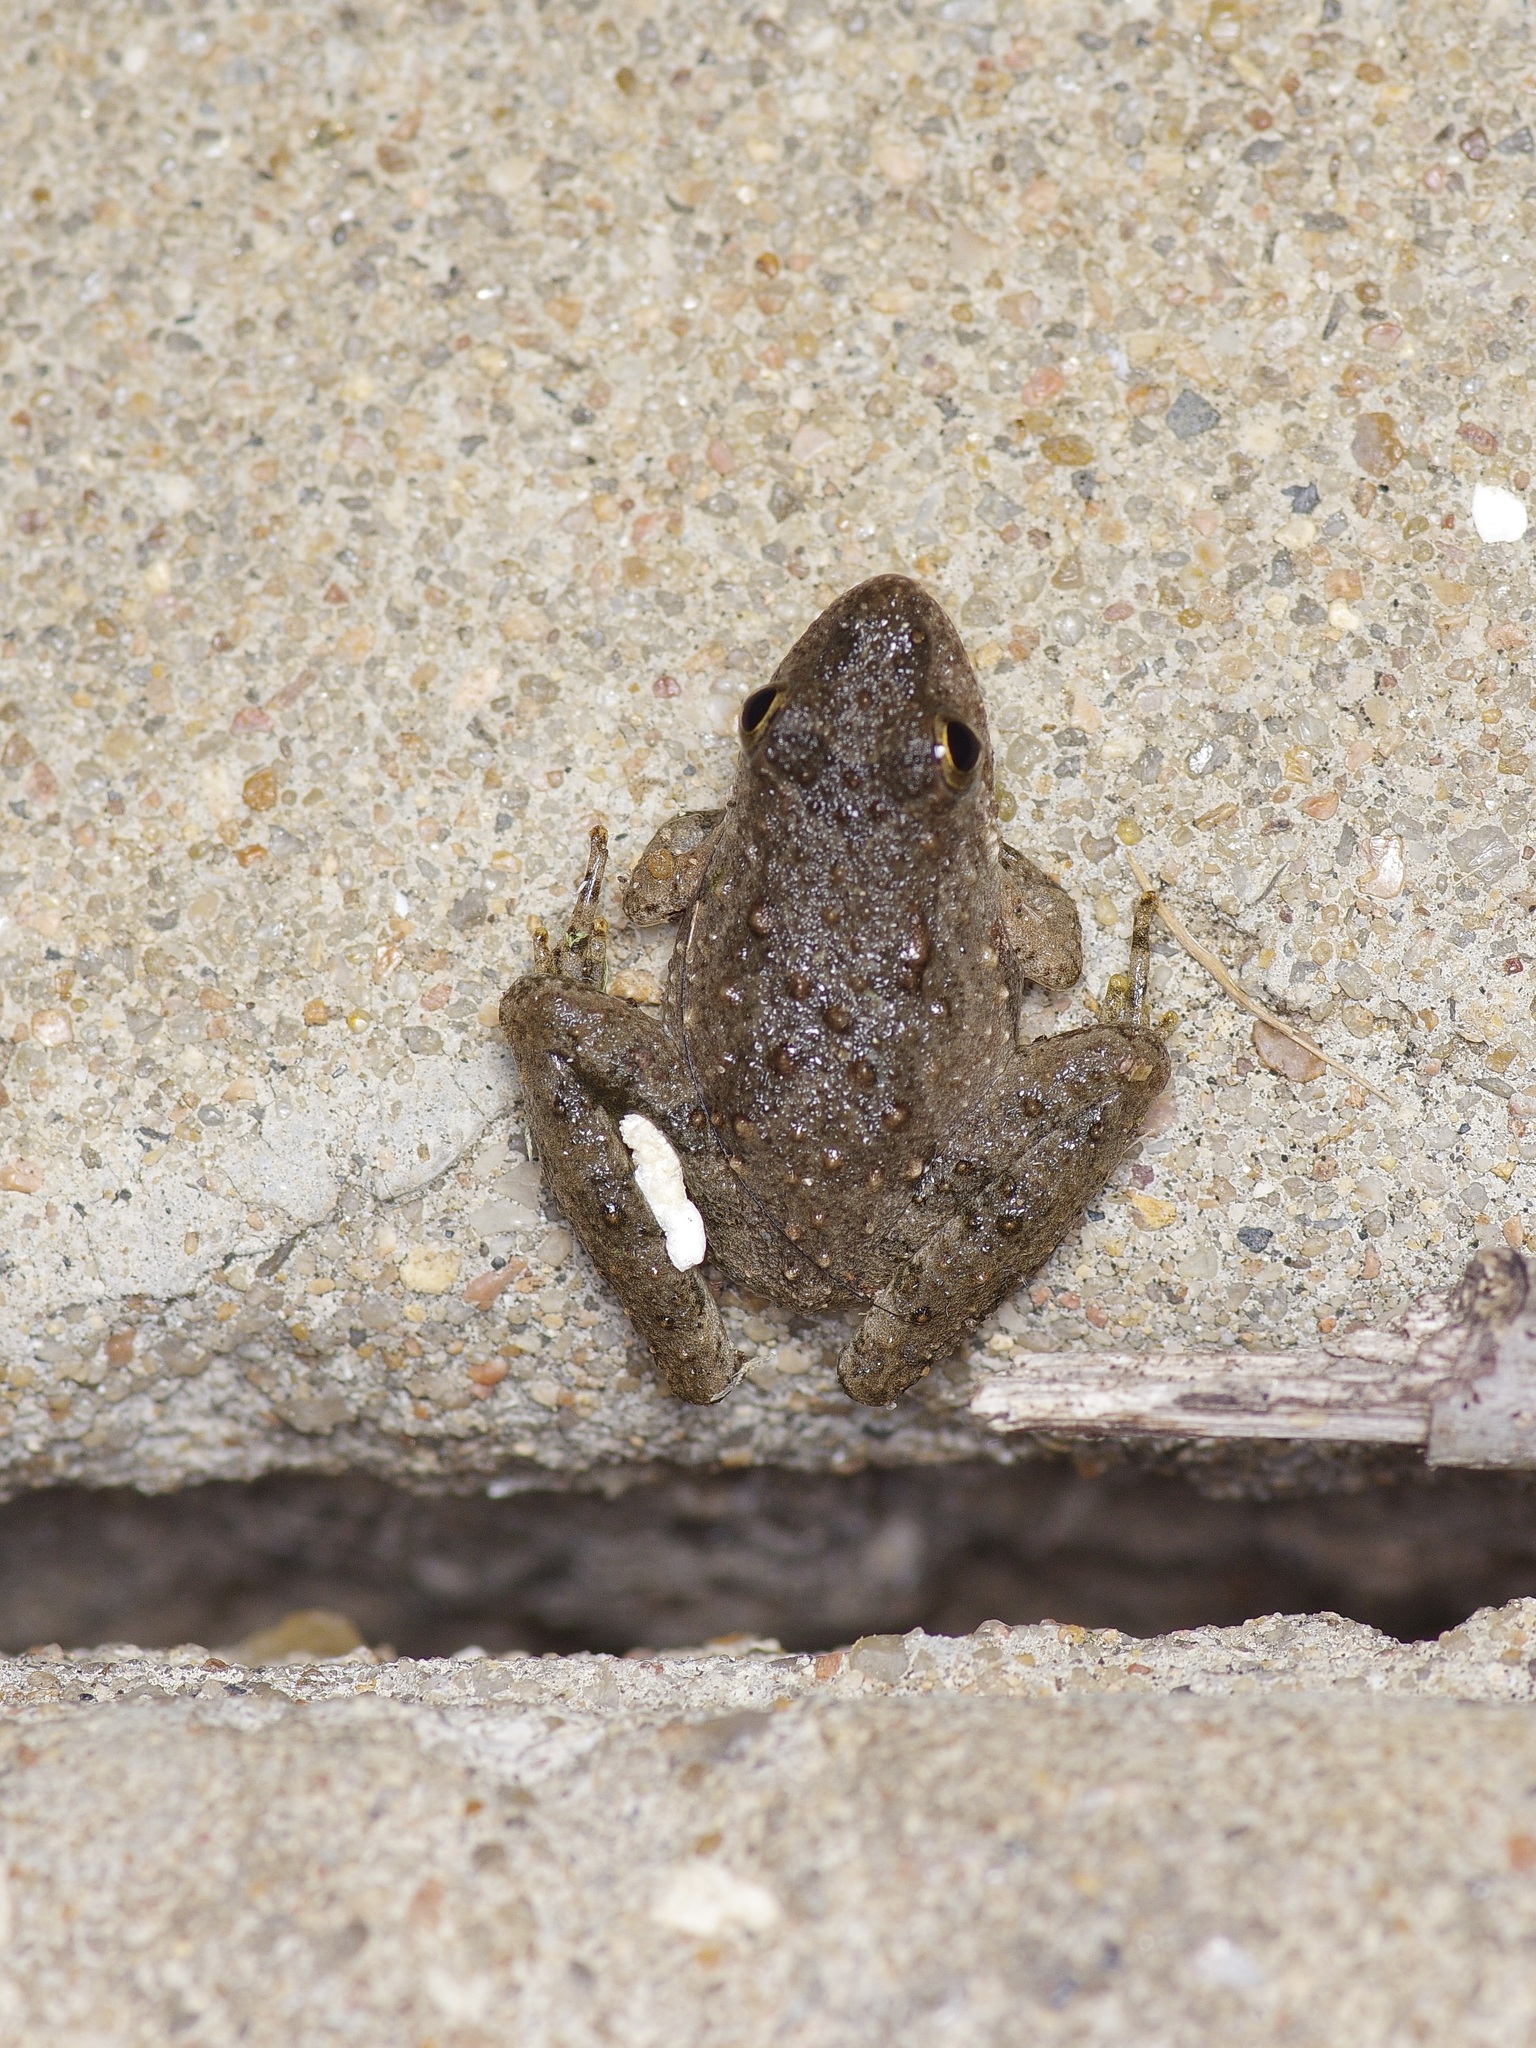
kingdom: Animalia
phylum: Chordata
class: Amphibia
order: Anura
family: Hylidae
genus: Acris
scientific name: Acris blanchardi
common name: Blanchard's cricket frog
